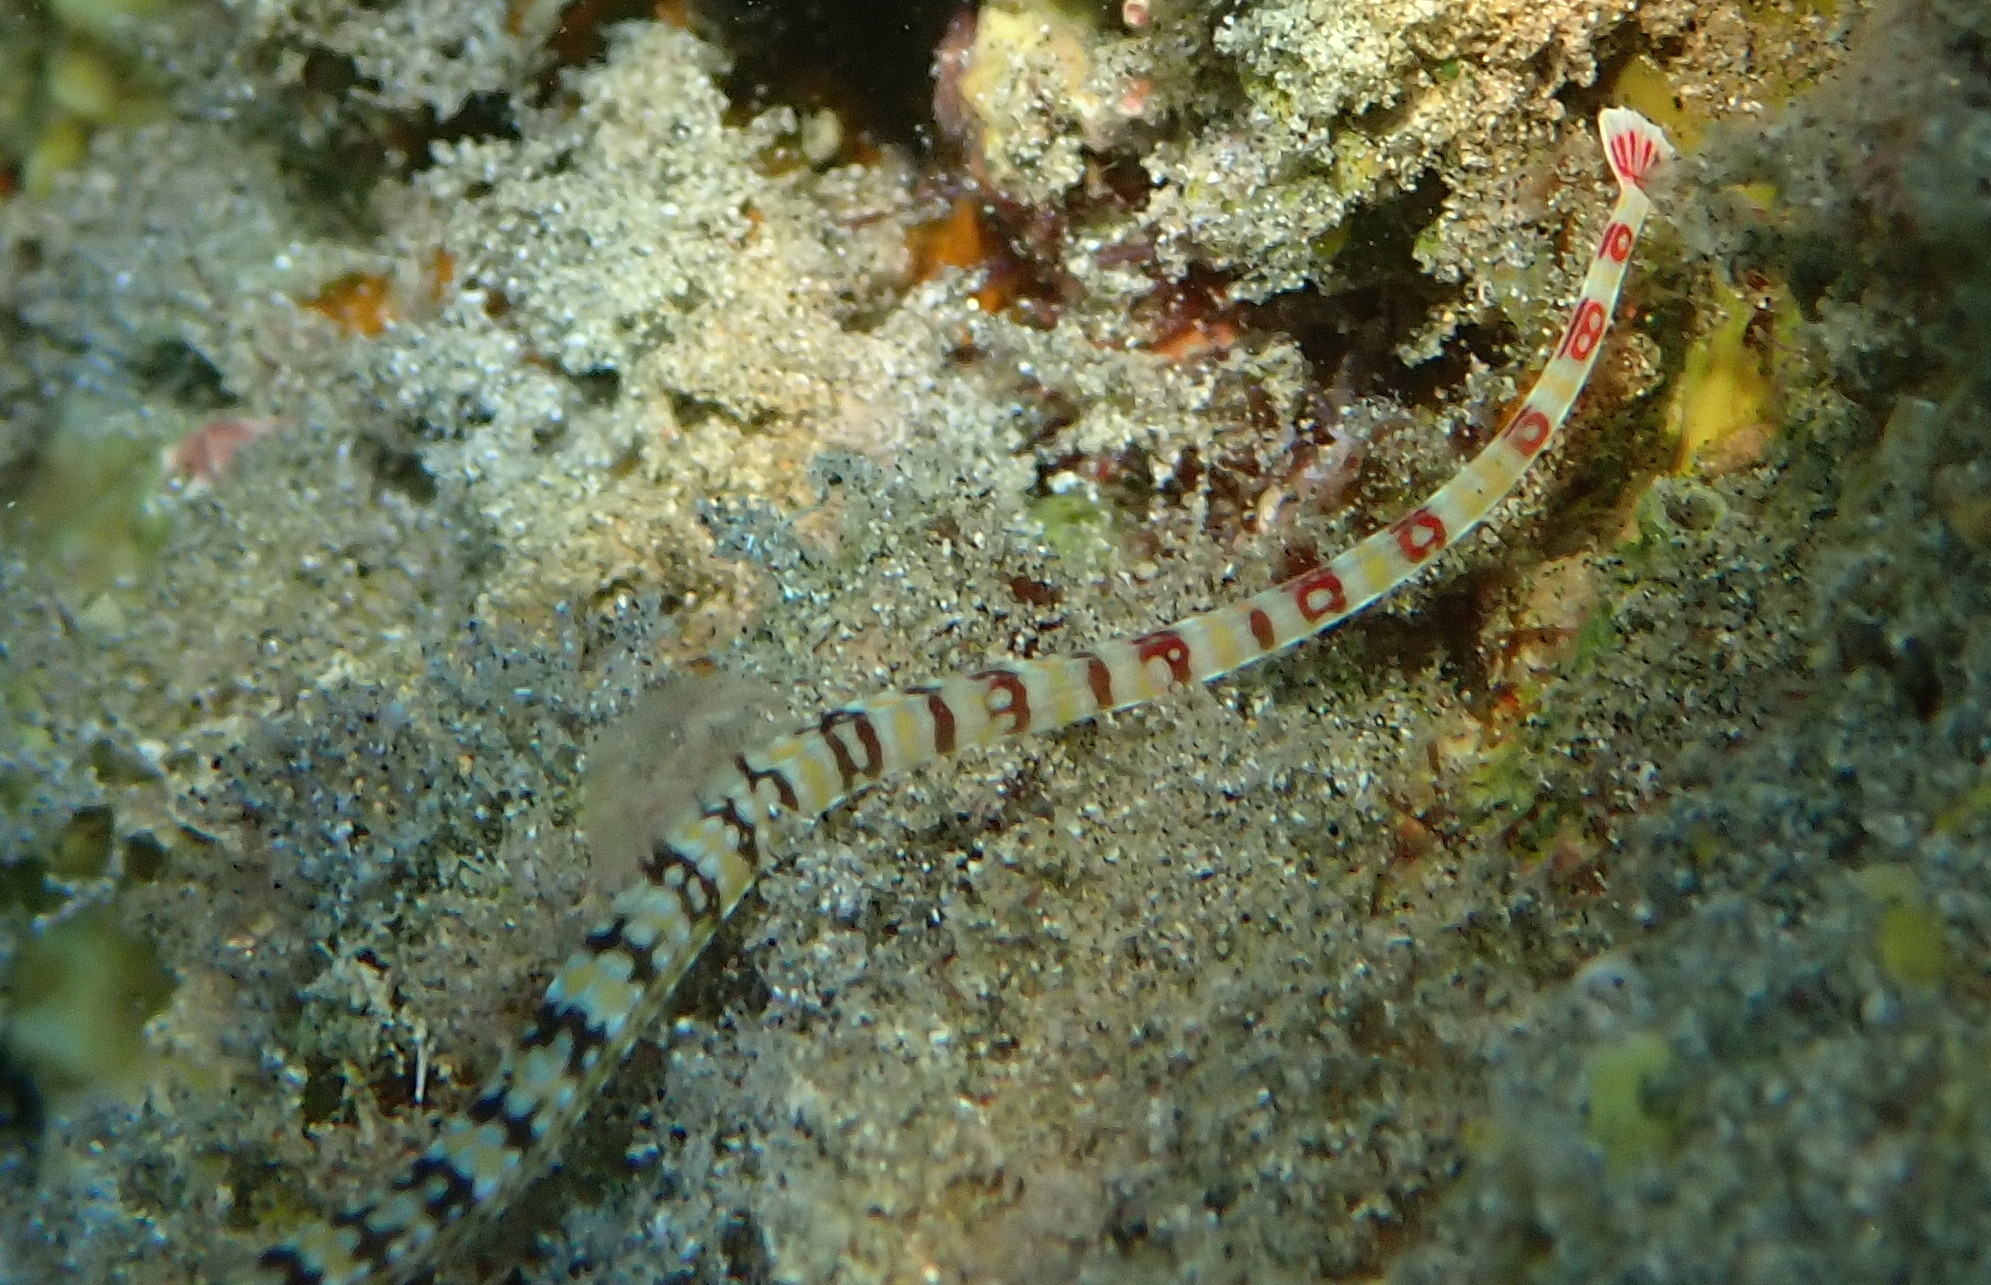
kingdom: Animalia
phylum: Chordata
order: Syngnathiformes
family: Syngnathidae
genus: Corythoichthys
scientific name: Corythoichthys flavofasciatus
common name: Banded pipefish
